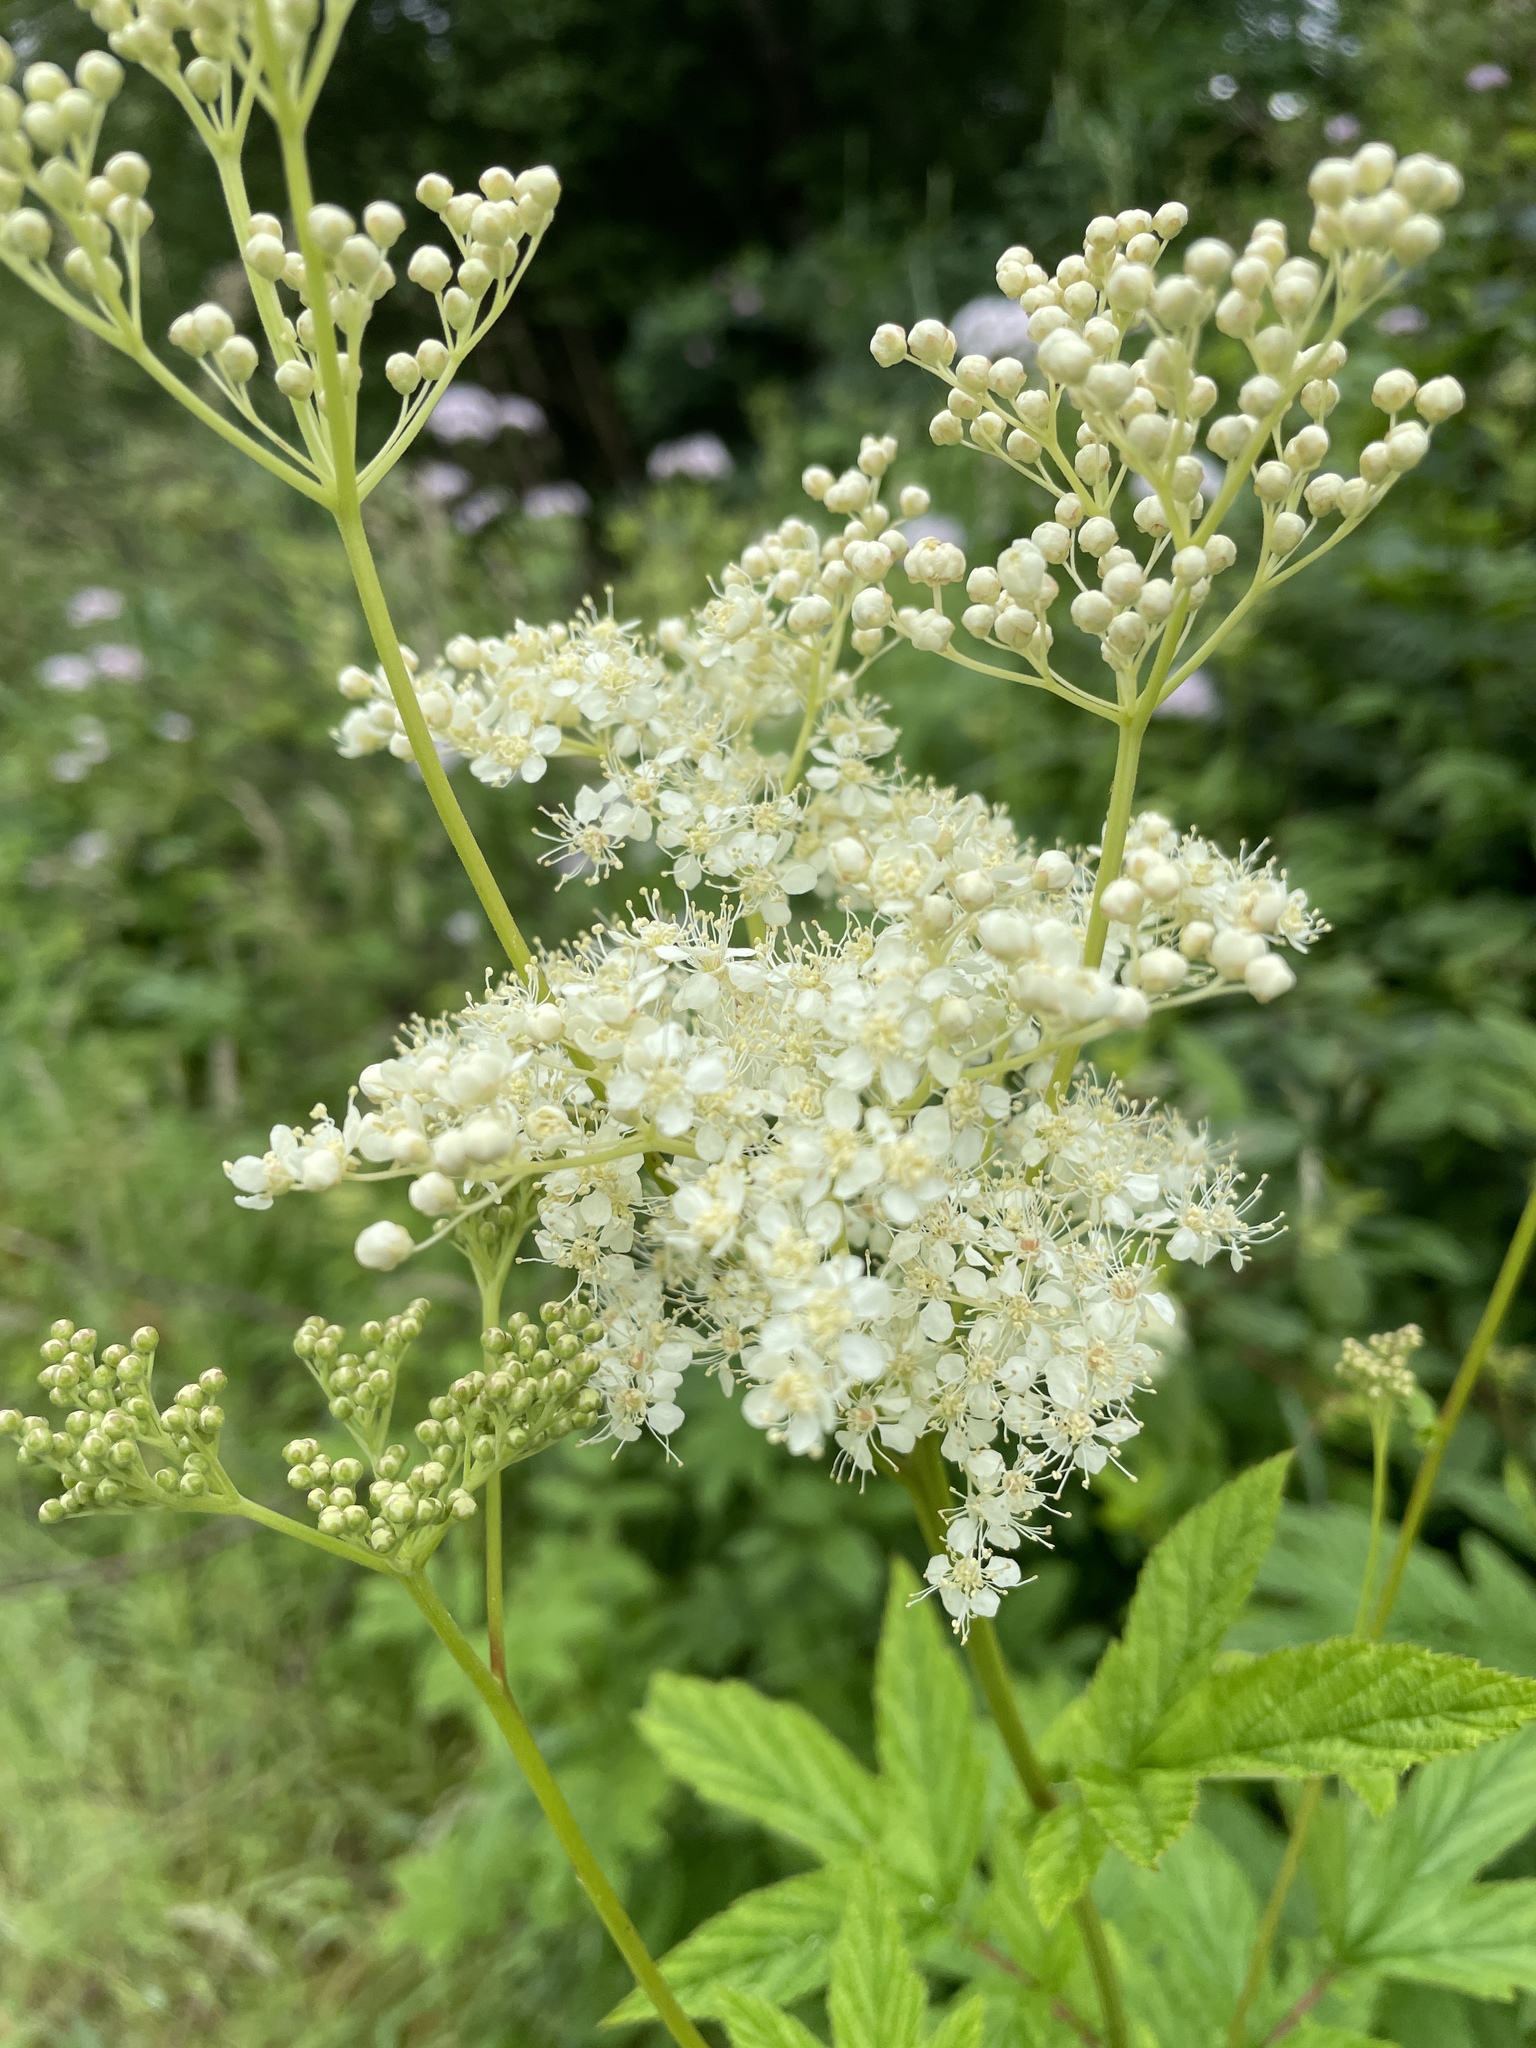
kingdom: Plantae
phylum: Tracheophyta
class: Magnoliopsida
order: Rosales
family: Rosaceae
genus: Filipendula
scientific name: Filipendula ulmaria
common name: Meadowsweet
